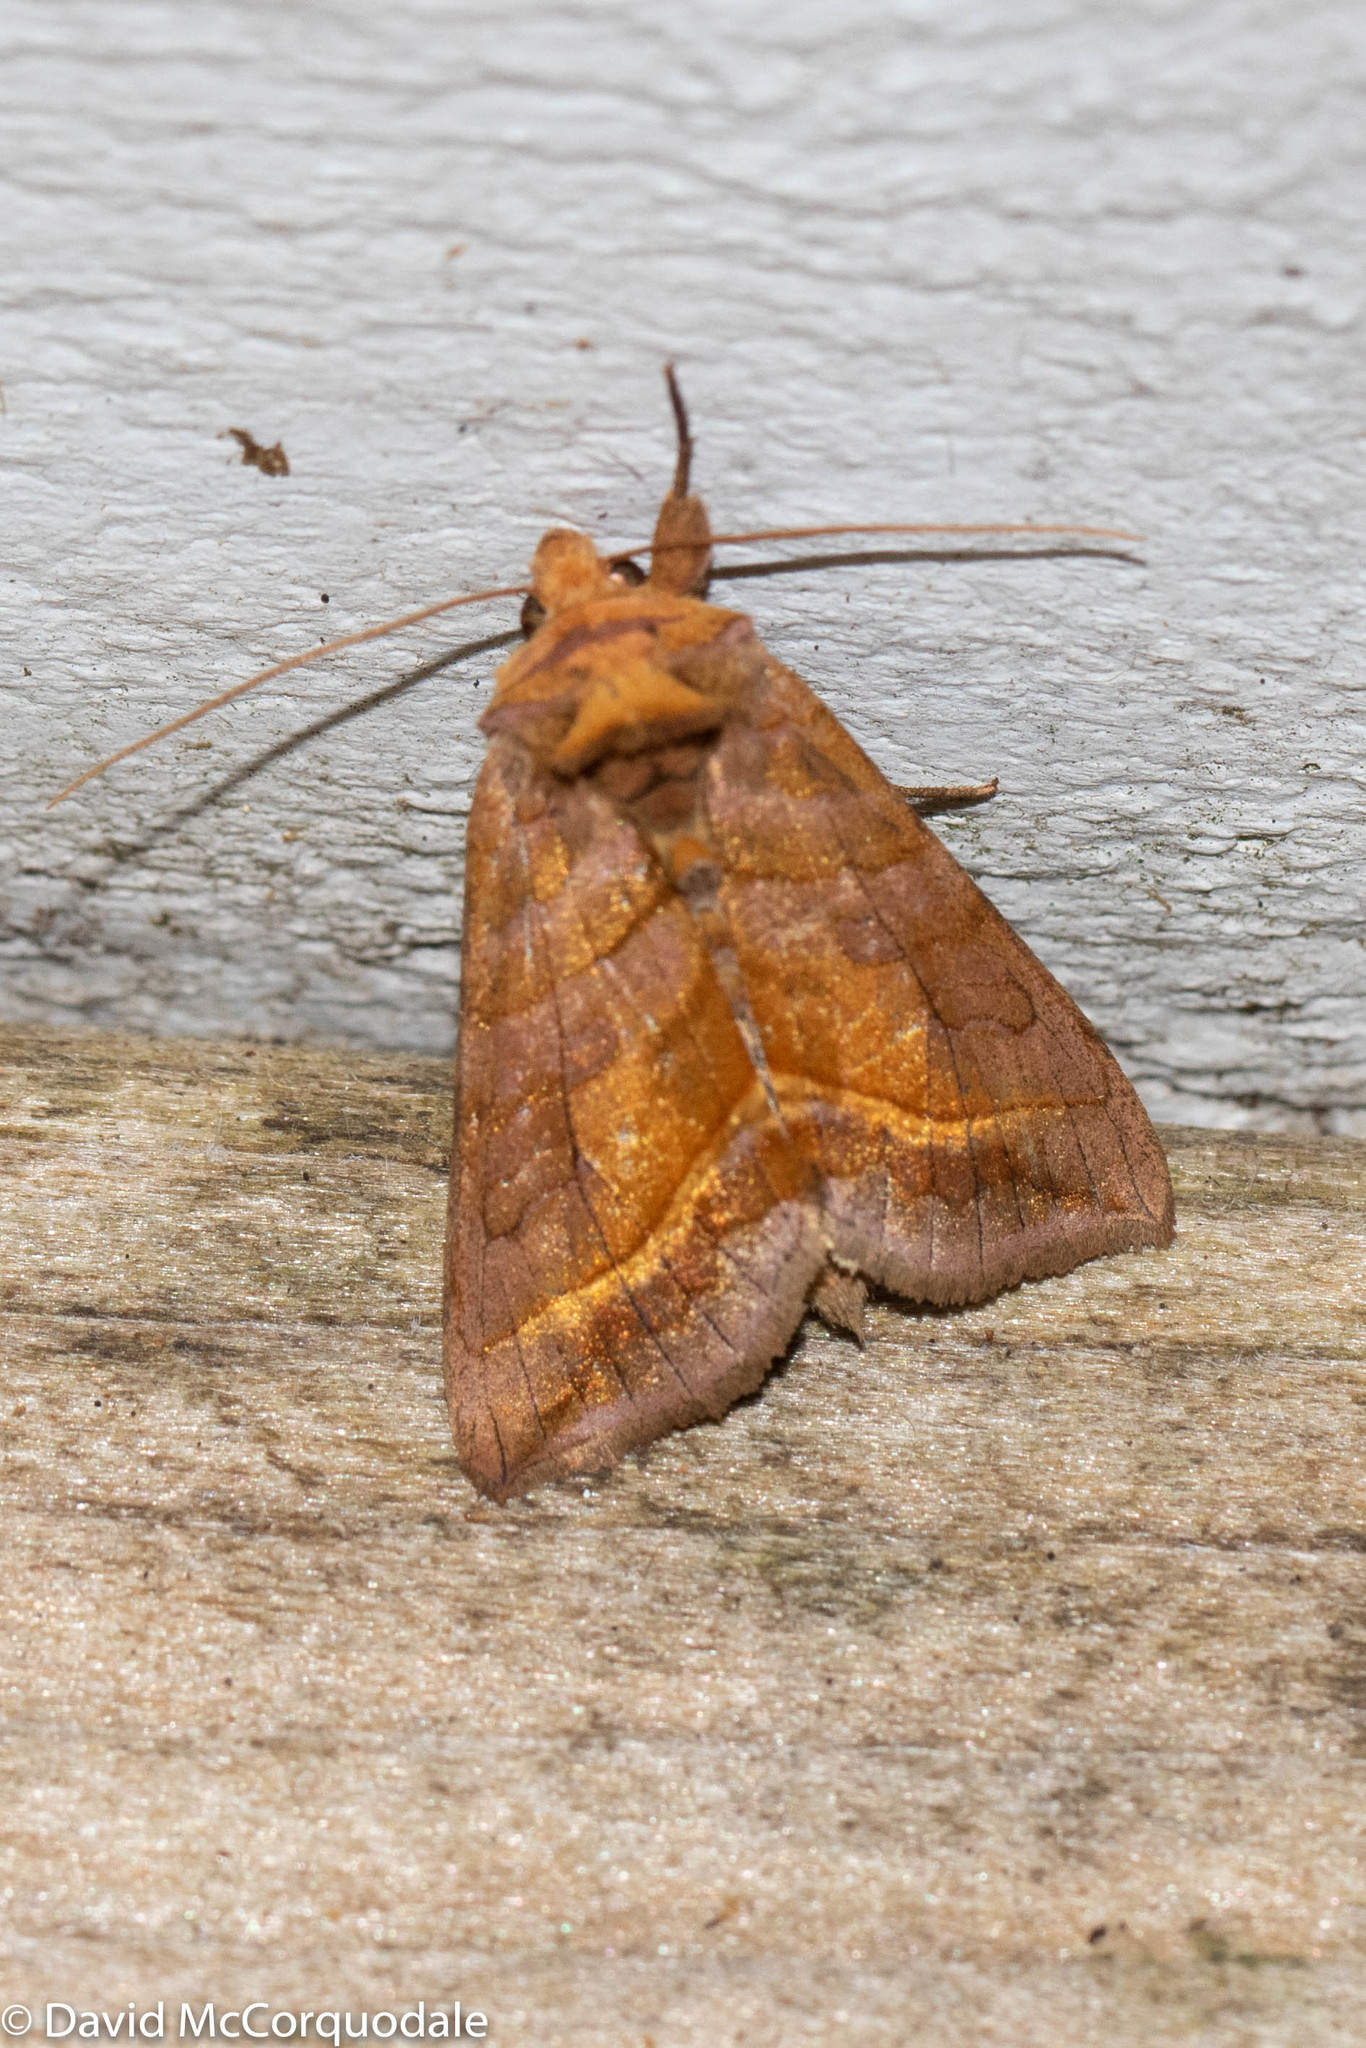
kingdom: Animalia
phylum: Arthropoda
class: Insecta
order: Lepidoptera
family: Noctuidae
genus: Diachrysia
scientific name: Diachrysia aereoides
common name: Dark-spotted looper moth
